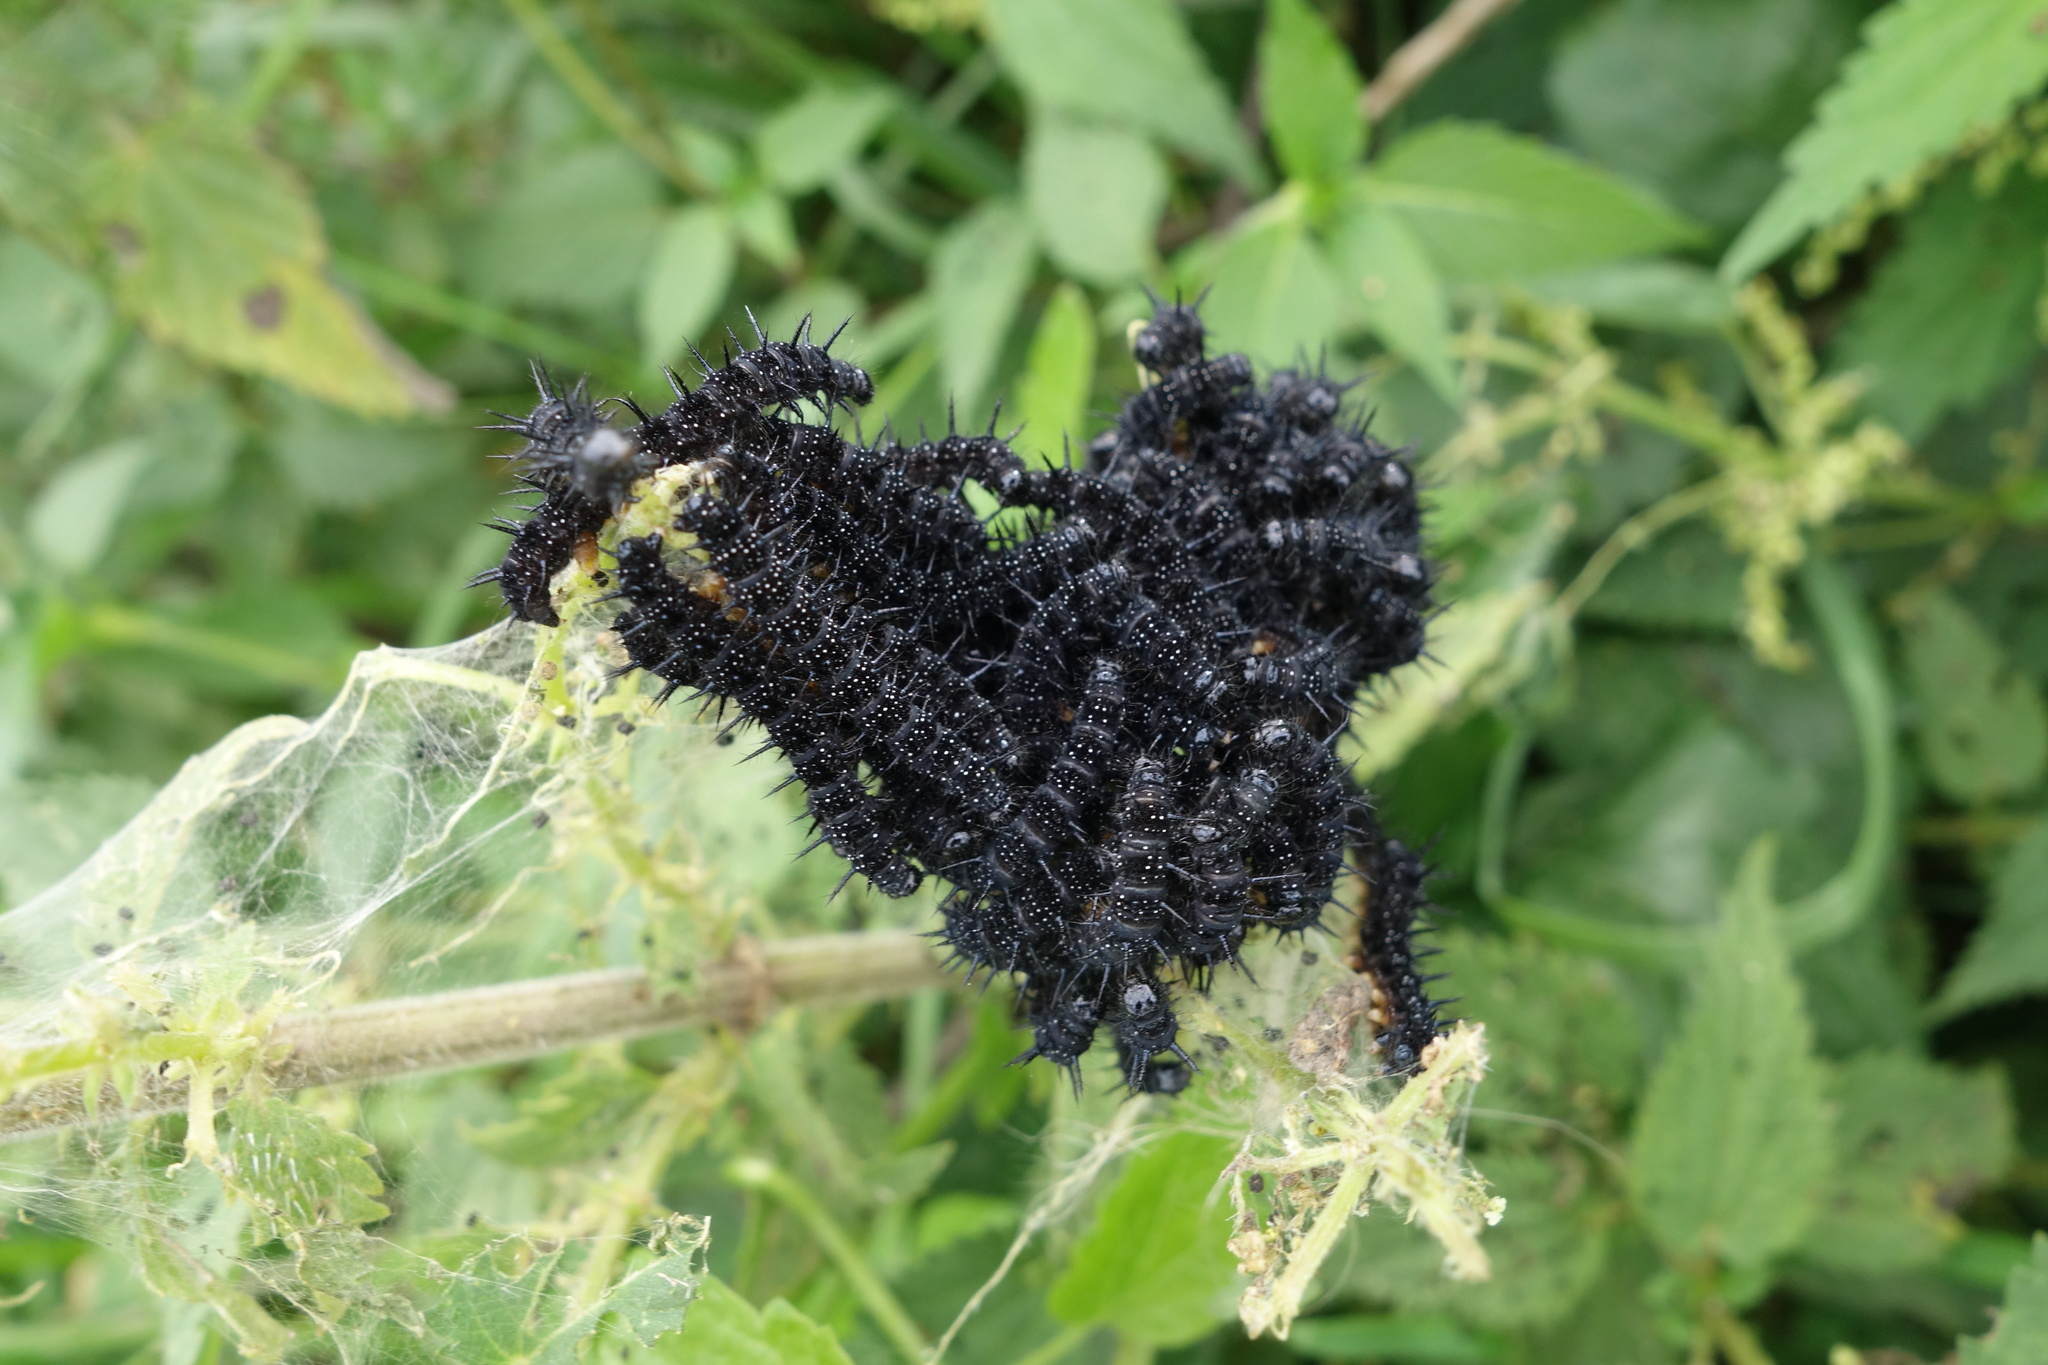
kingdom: Animalia
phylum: Arthropoda
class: Insecta
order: Lepidoptera
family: Nymphalidae
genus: Aglais
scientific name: Aglais io
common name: Peacock
